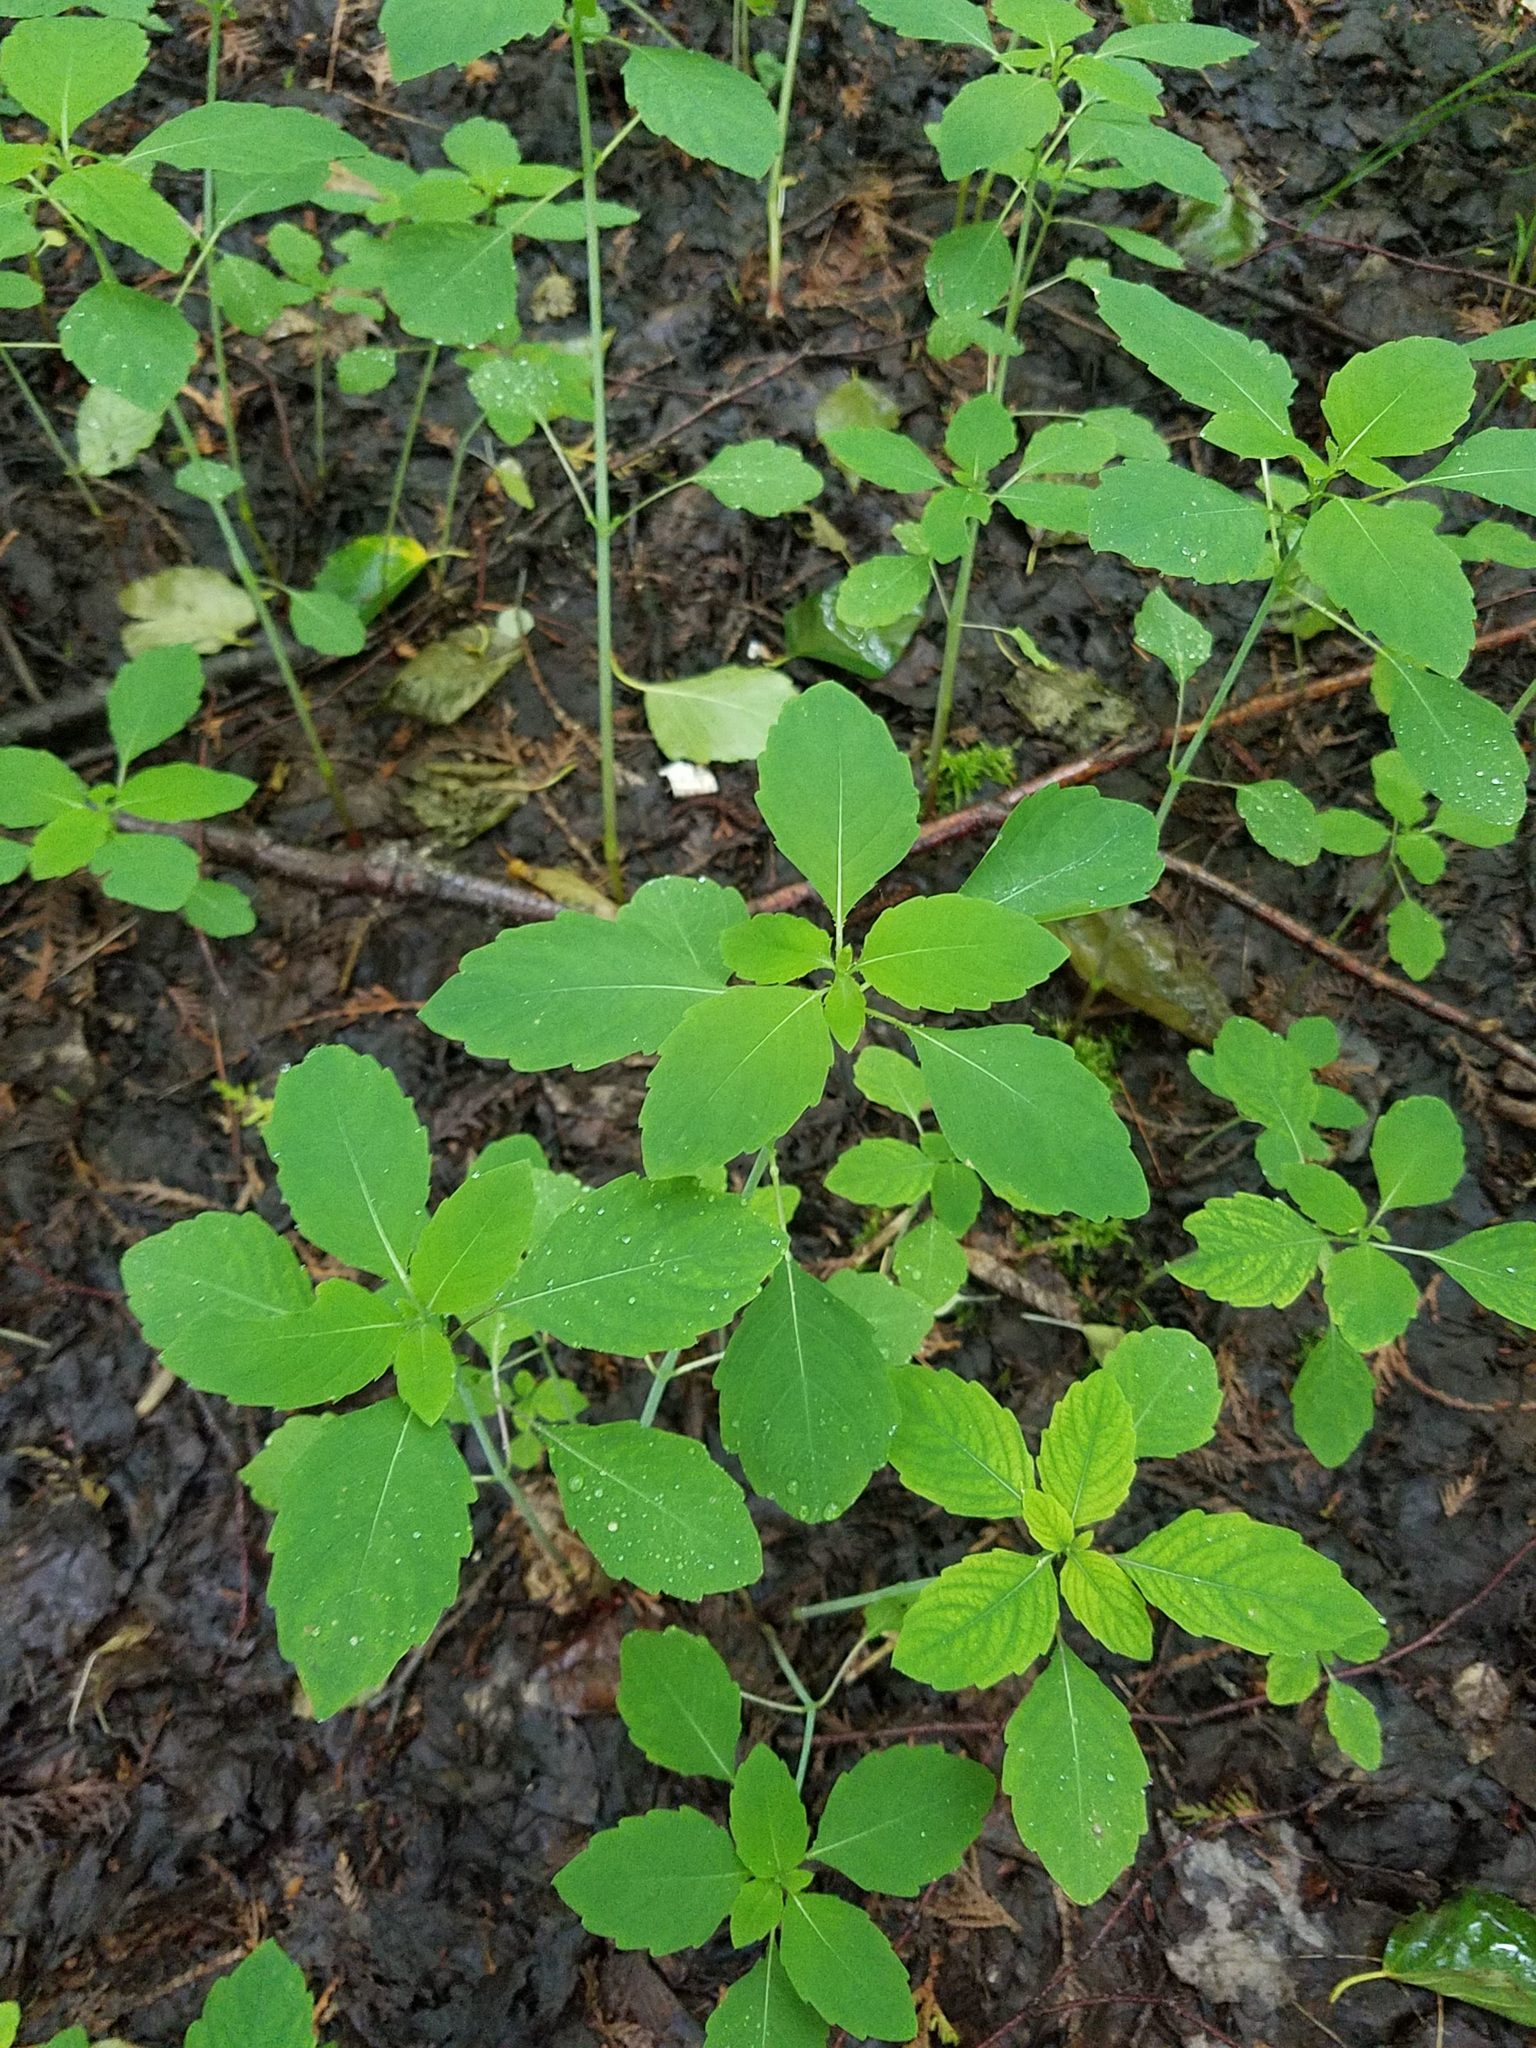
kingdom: Plantae
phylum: Tracheophyta
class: Magnoliopsida
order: Ericales
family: Balsaminaceae
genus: Impatiens
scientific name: Impatiens capensis
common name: Orange balsam
